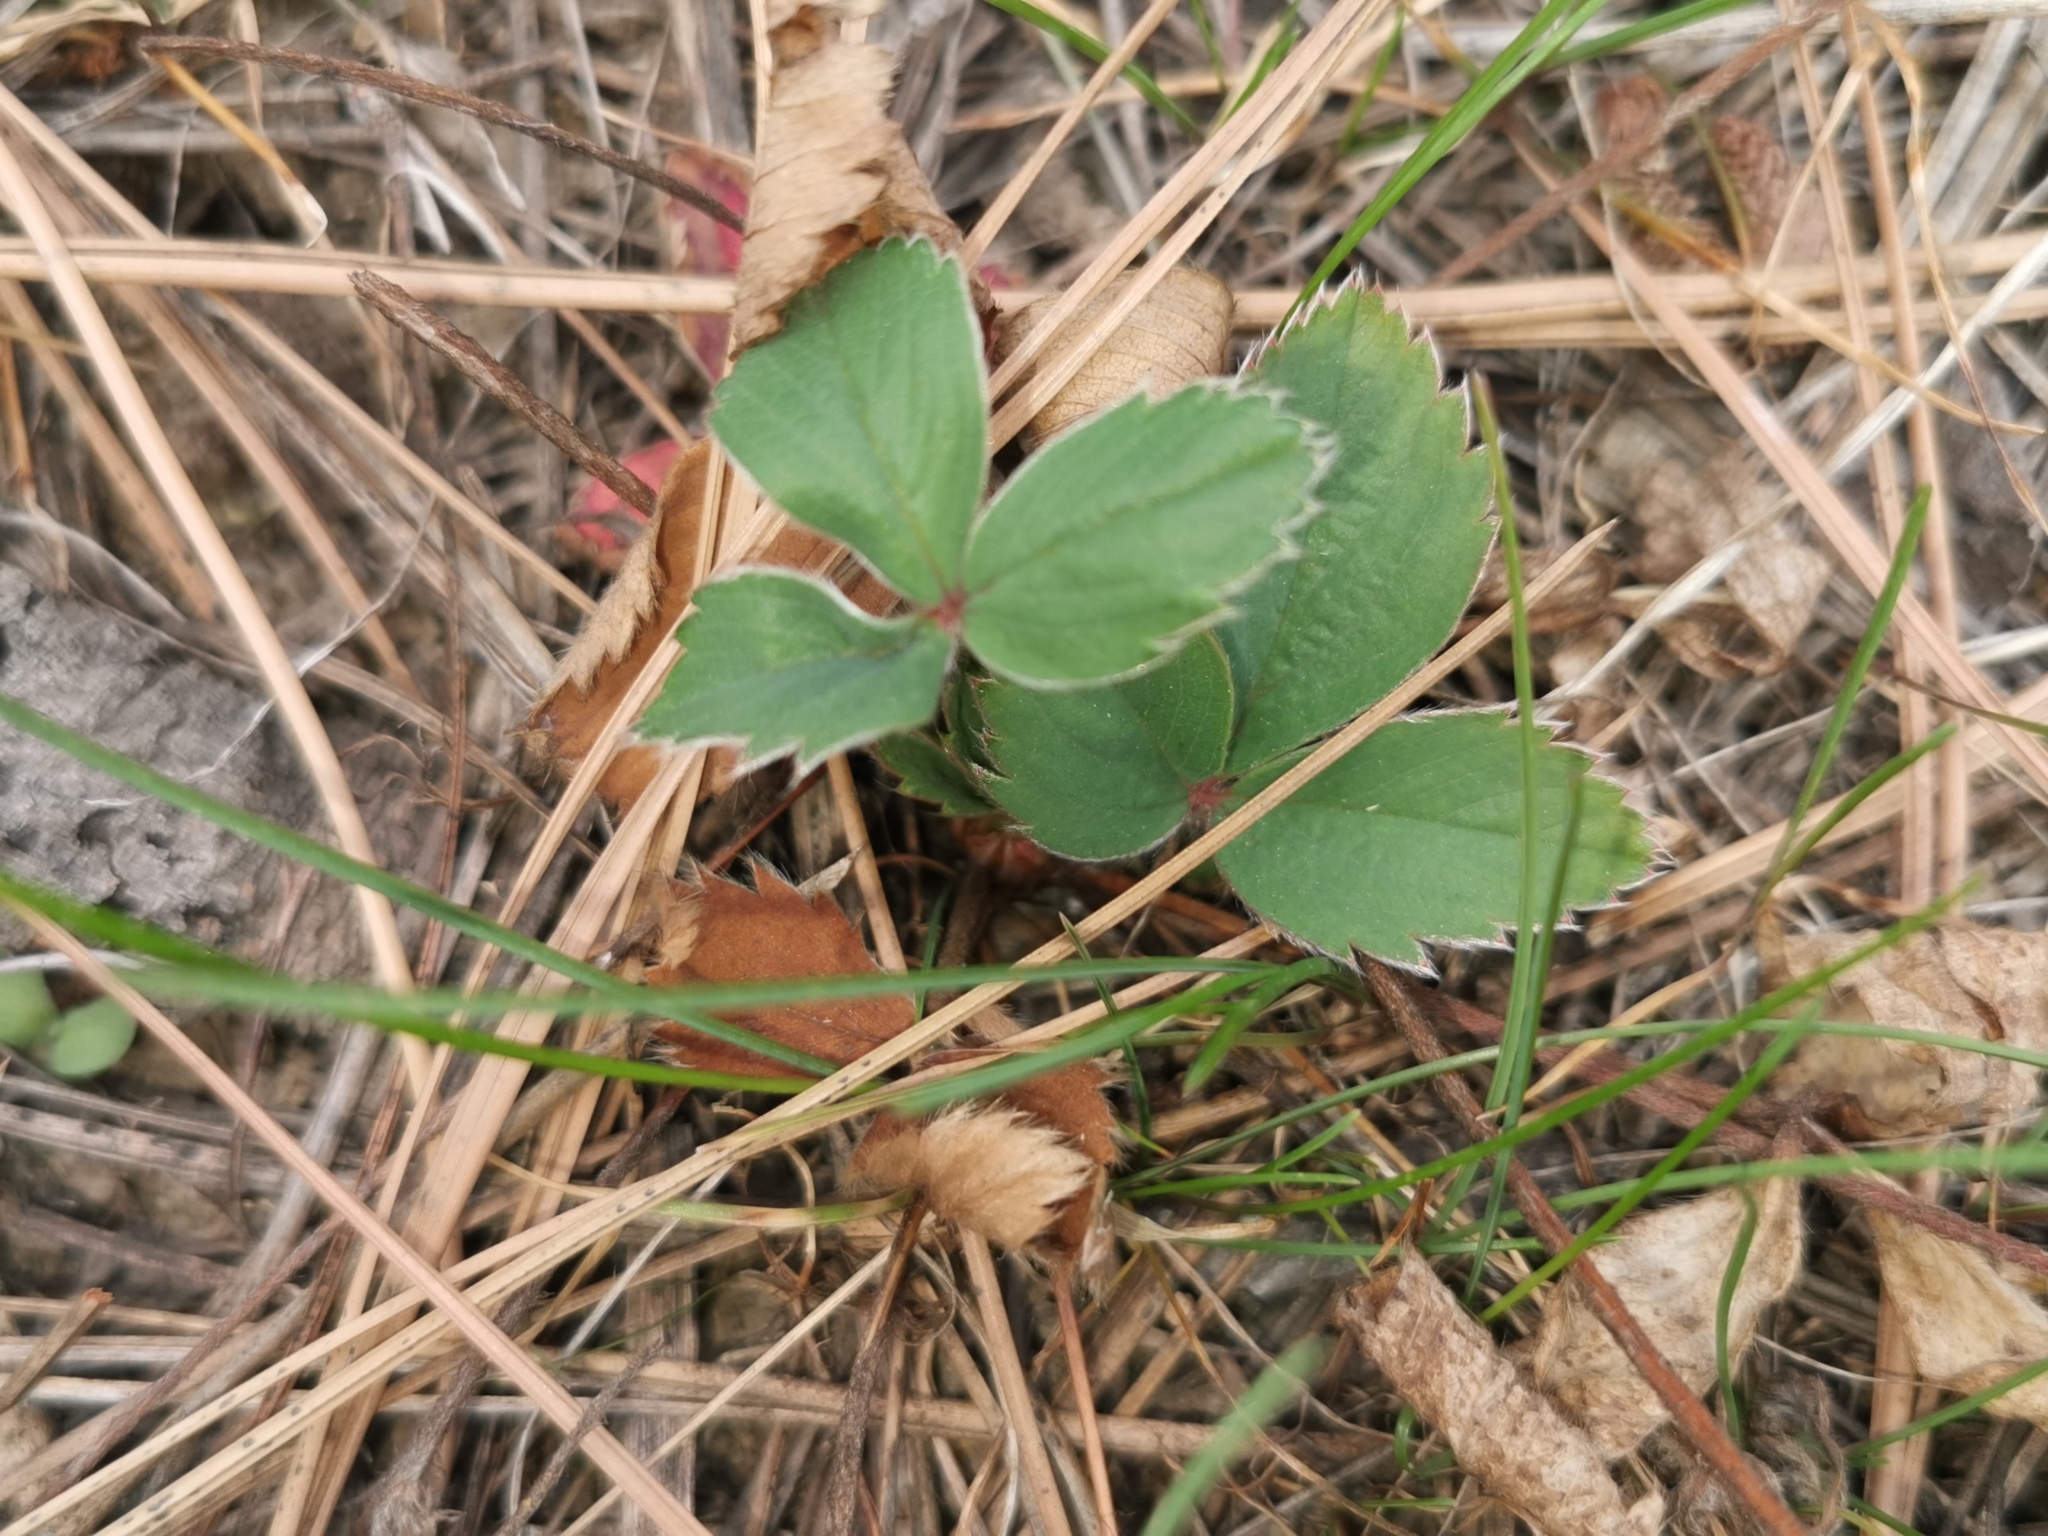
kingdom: Plantae
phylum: Tracheophyta
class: Magnoliopsida
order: Rosales
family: Rosaceae
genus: Fragaria
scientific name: Fragaria virginiana
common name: Thickleaved wild strawberry
